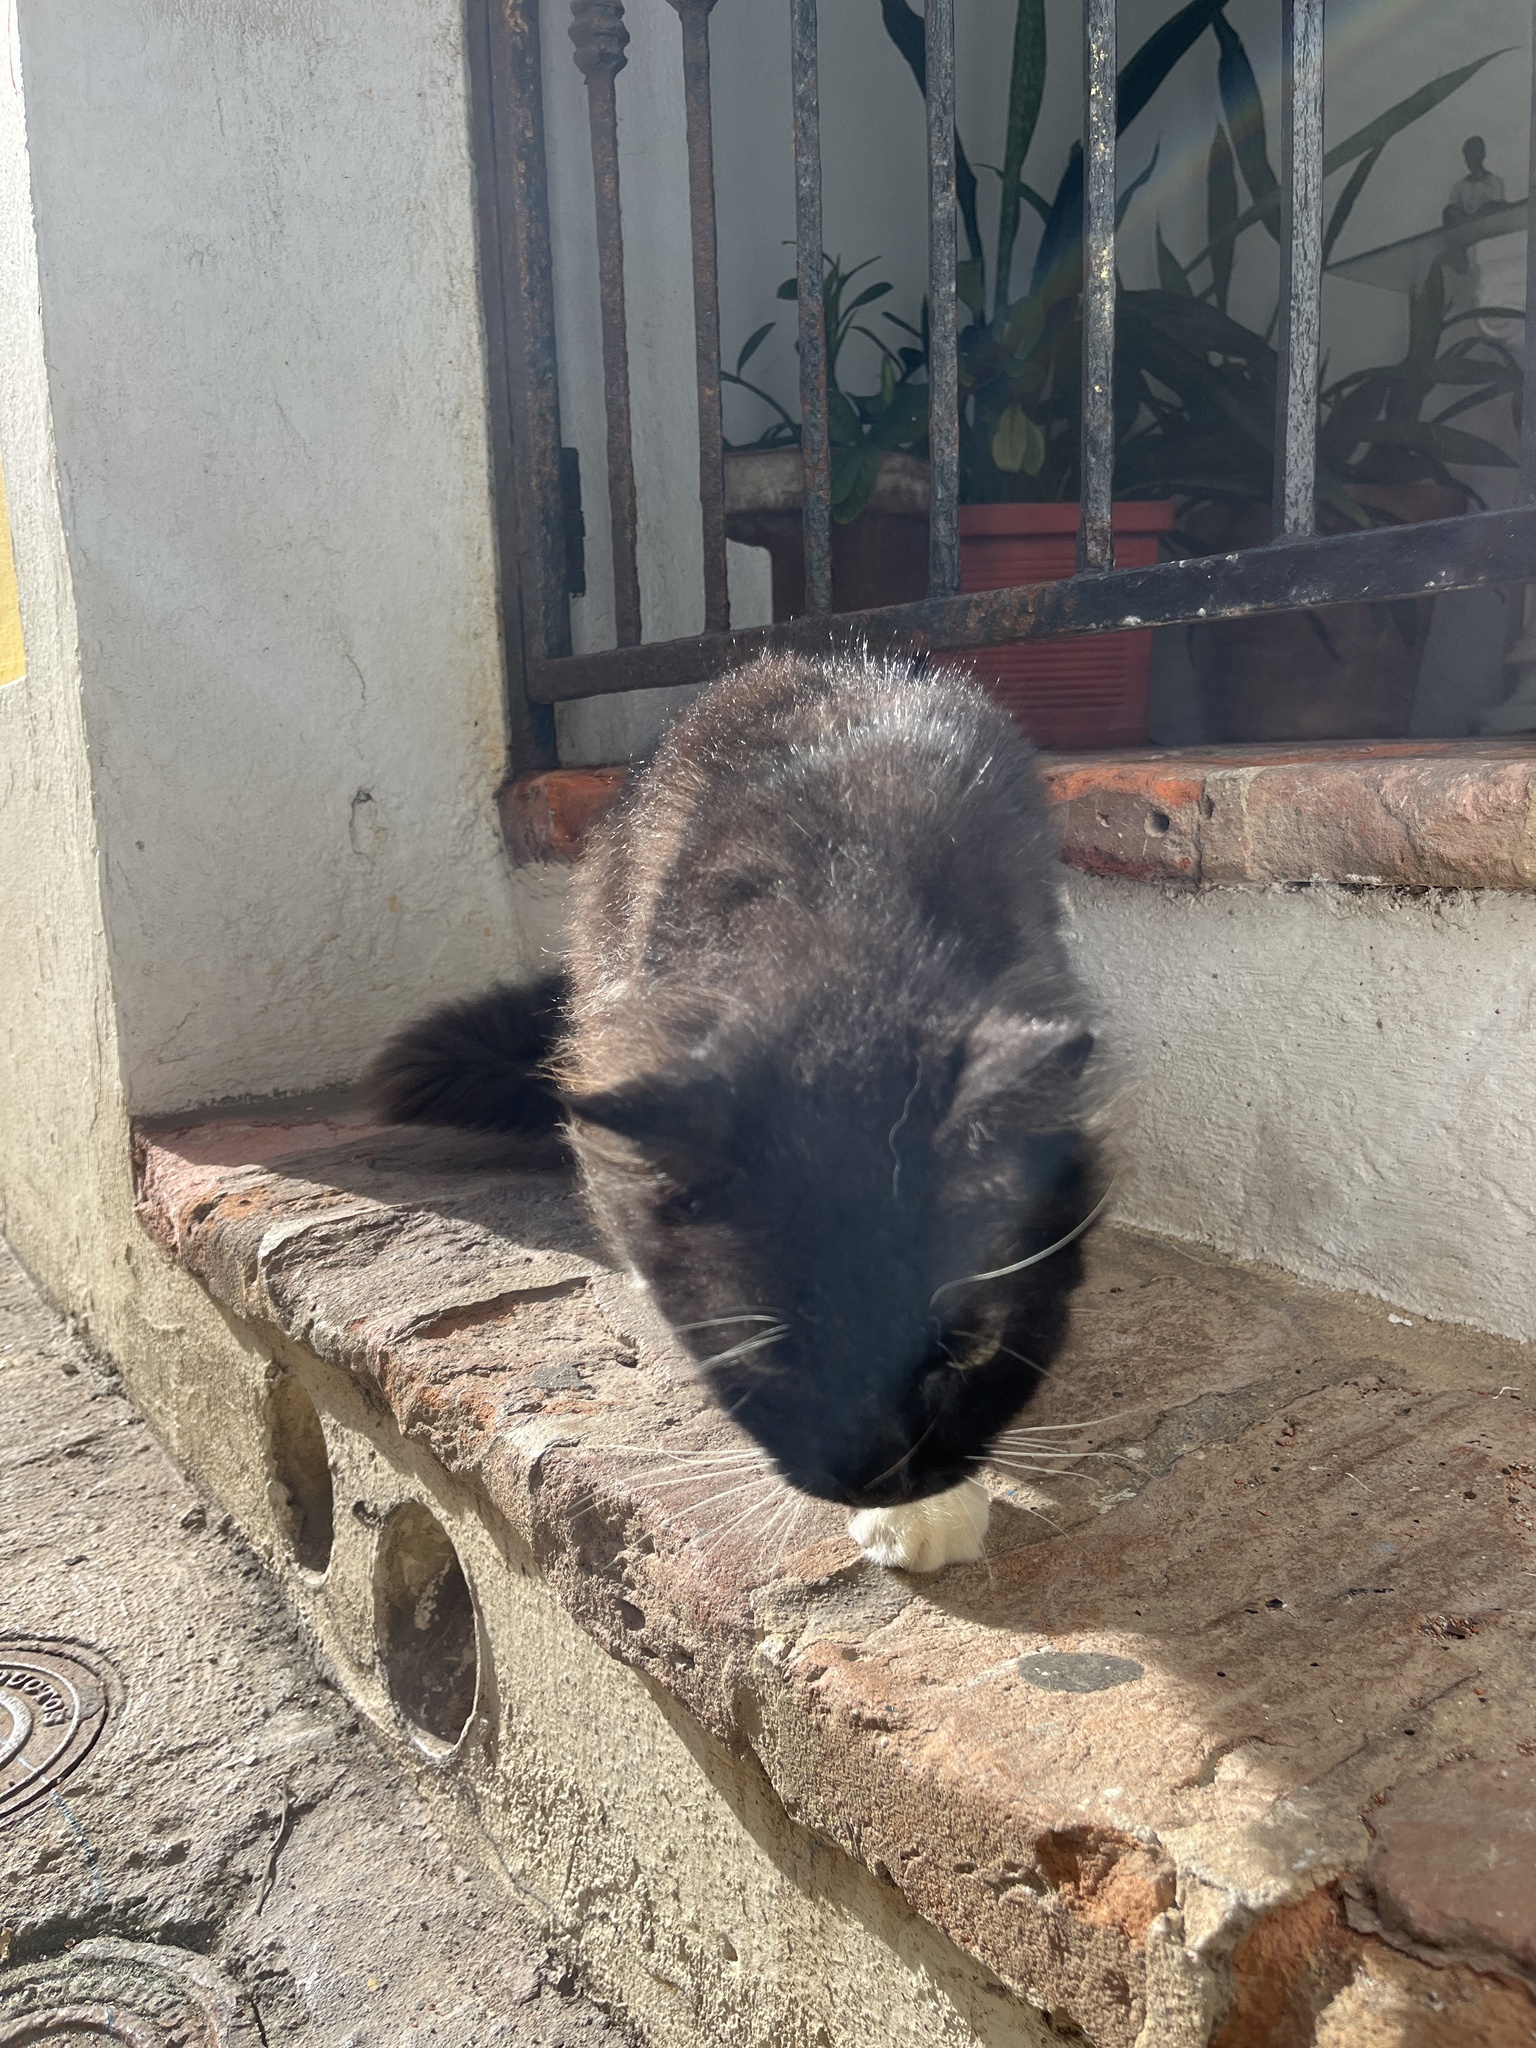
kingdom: Animalia
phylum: Chordata
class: Mammalia
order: Carnivora
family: Felidae
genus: Felis
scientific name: Felis catus
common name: Domestic cat
